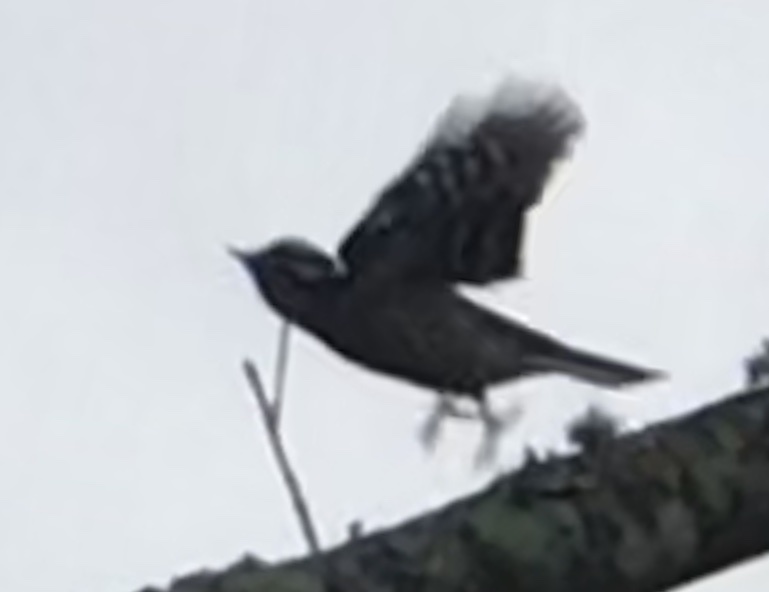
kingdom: Animalia
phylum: Chordata
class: Aves
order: Piciformes
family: Picidae
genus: Dryobates
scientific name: Dryobates pubescens
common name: Downy woodpecker
